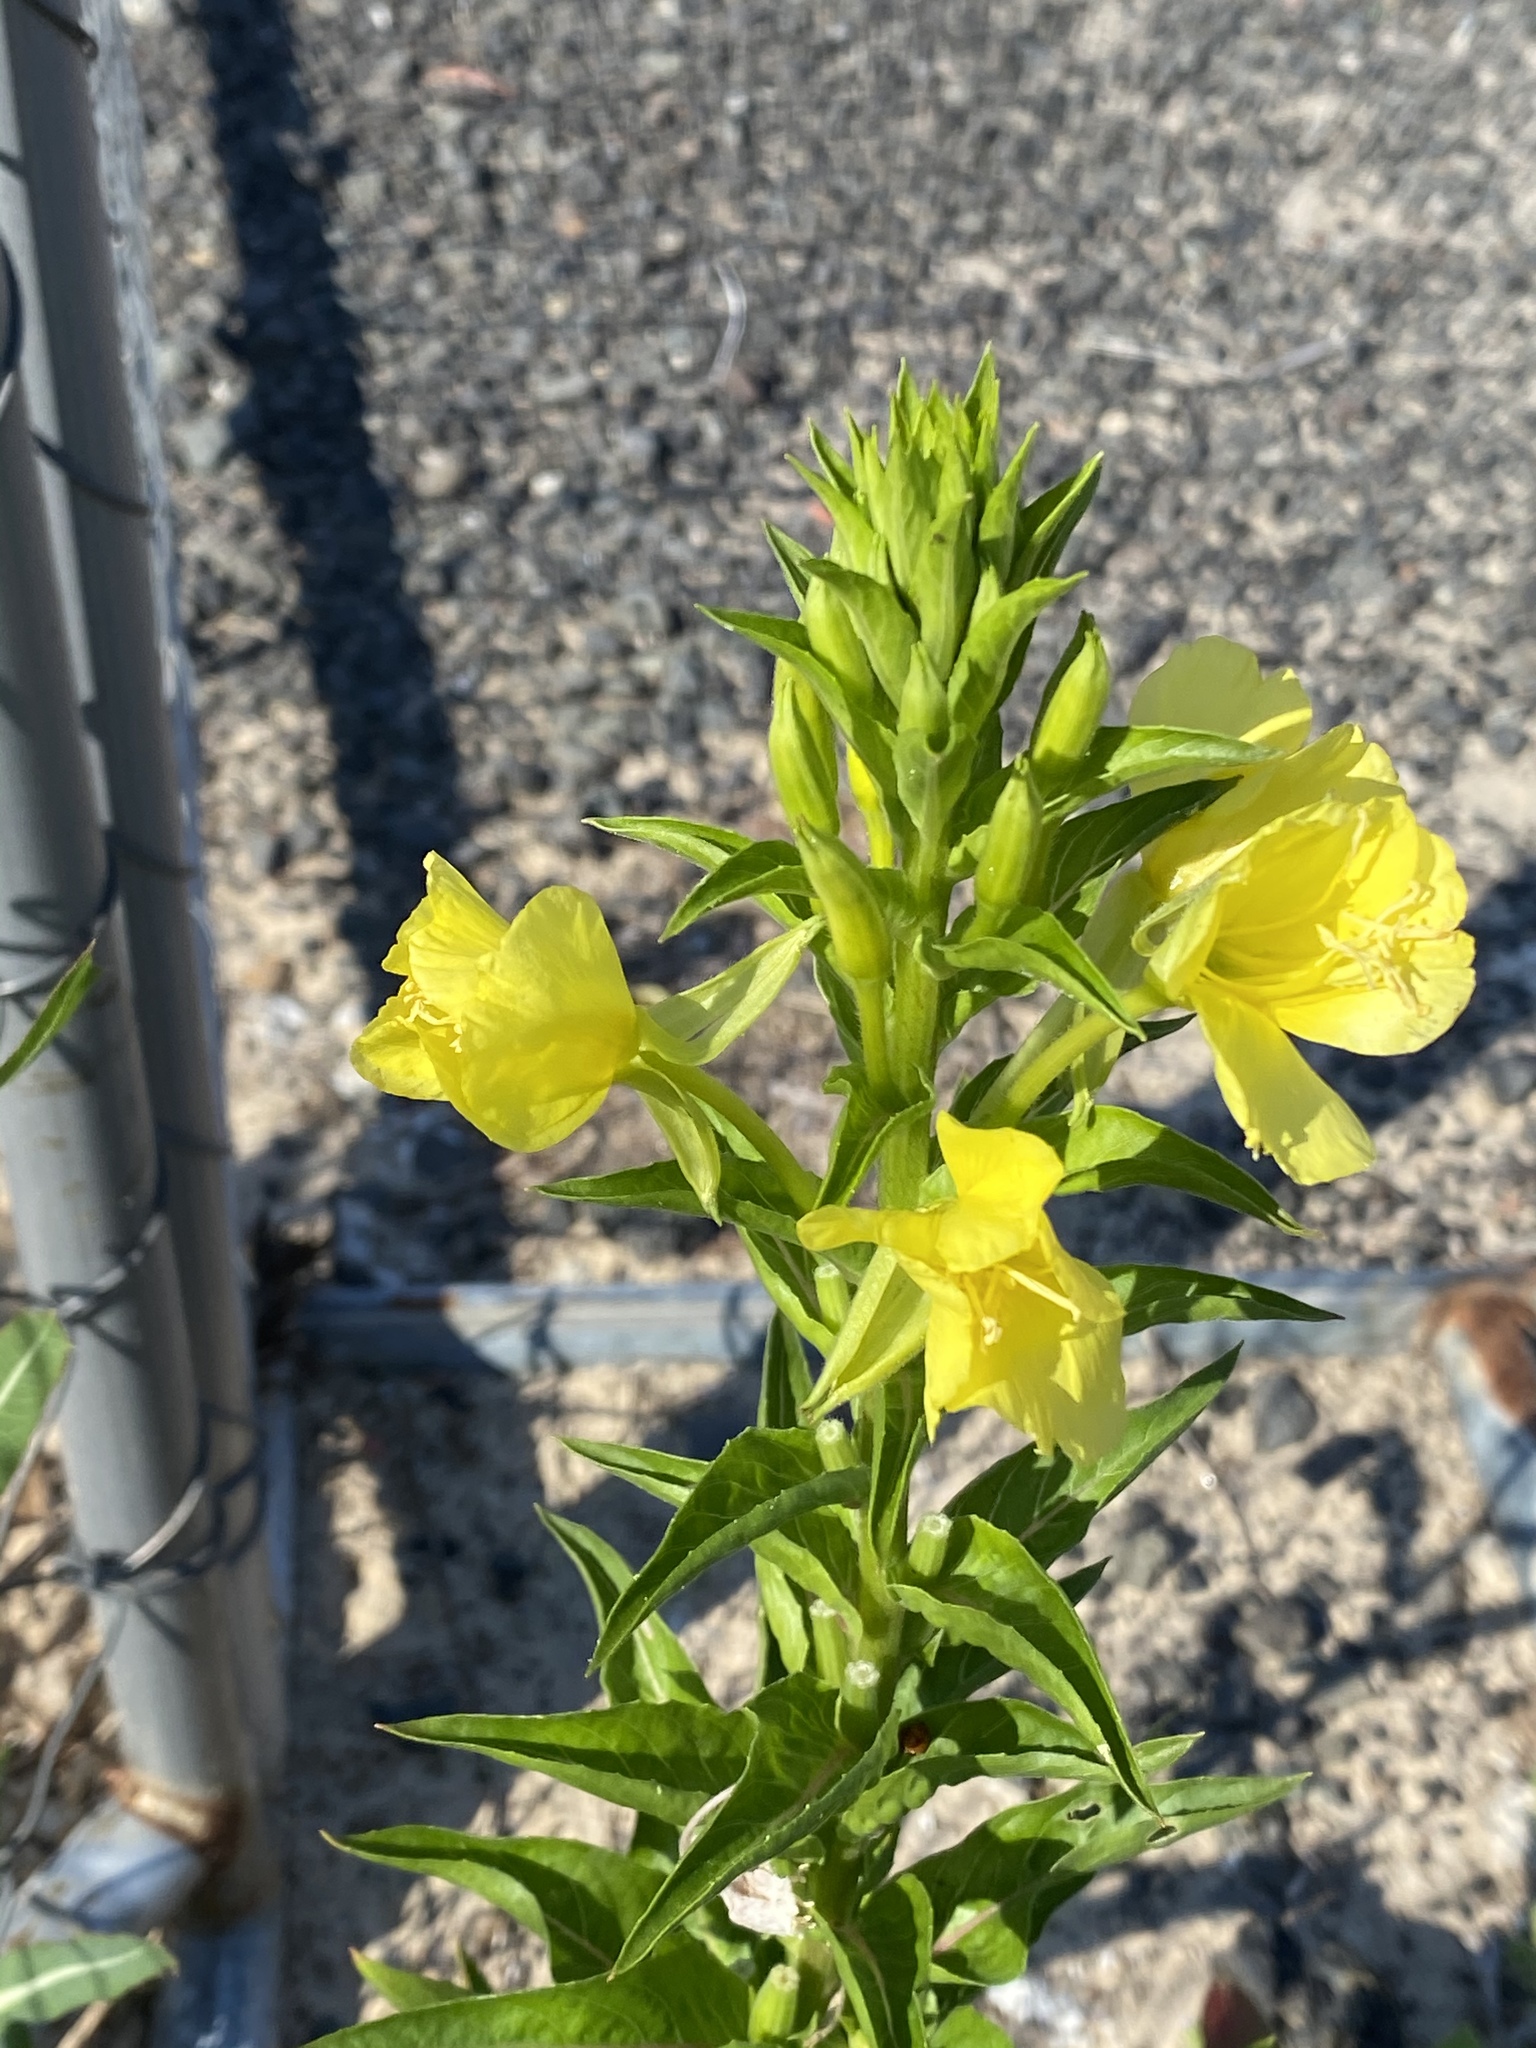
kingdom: Plantae
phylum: Tracheophyta
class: Magnoliopsida
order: Myrtales
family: Onagraceae
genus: Oenothera
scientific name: Oenothera biennis
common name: Common evening-primrose
